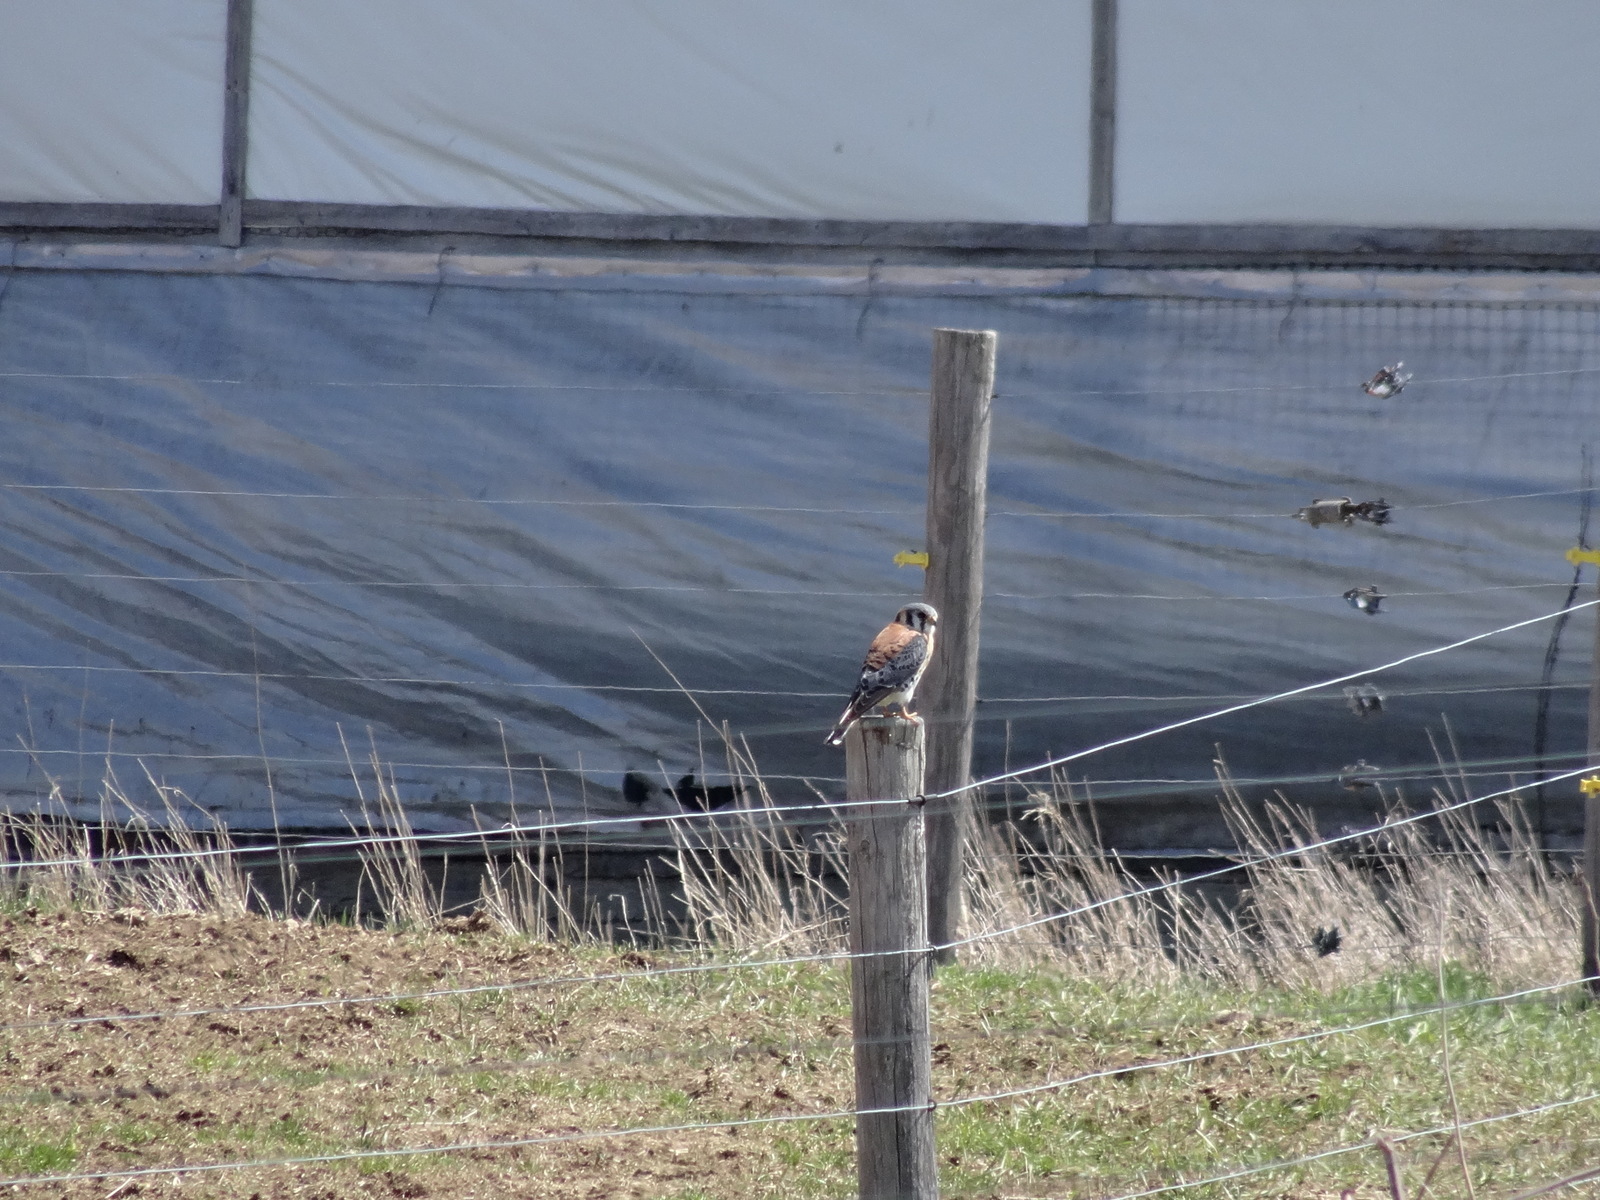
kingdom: Animalia
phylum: Chordata
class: Aves
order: Falconiformes
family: Falconidae
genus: Falco
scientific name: Falco sparverius
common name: American kestrel
